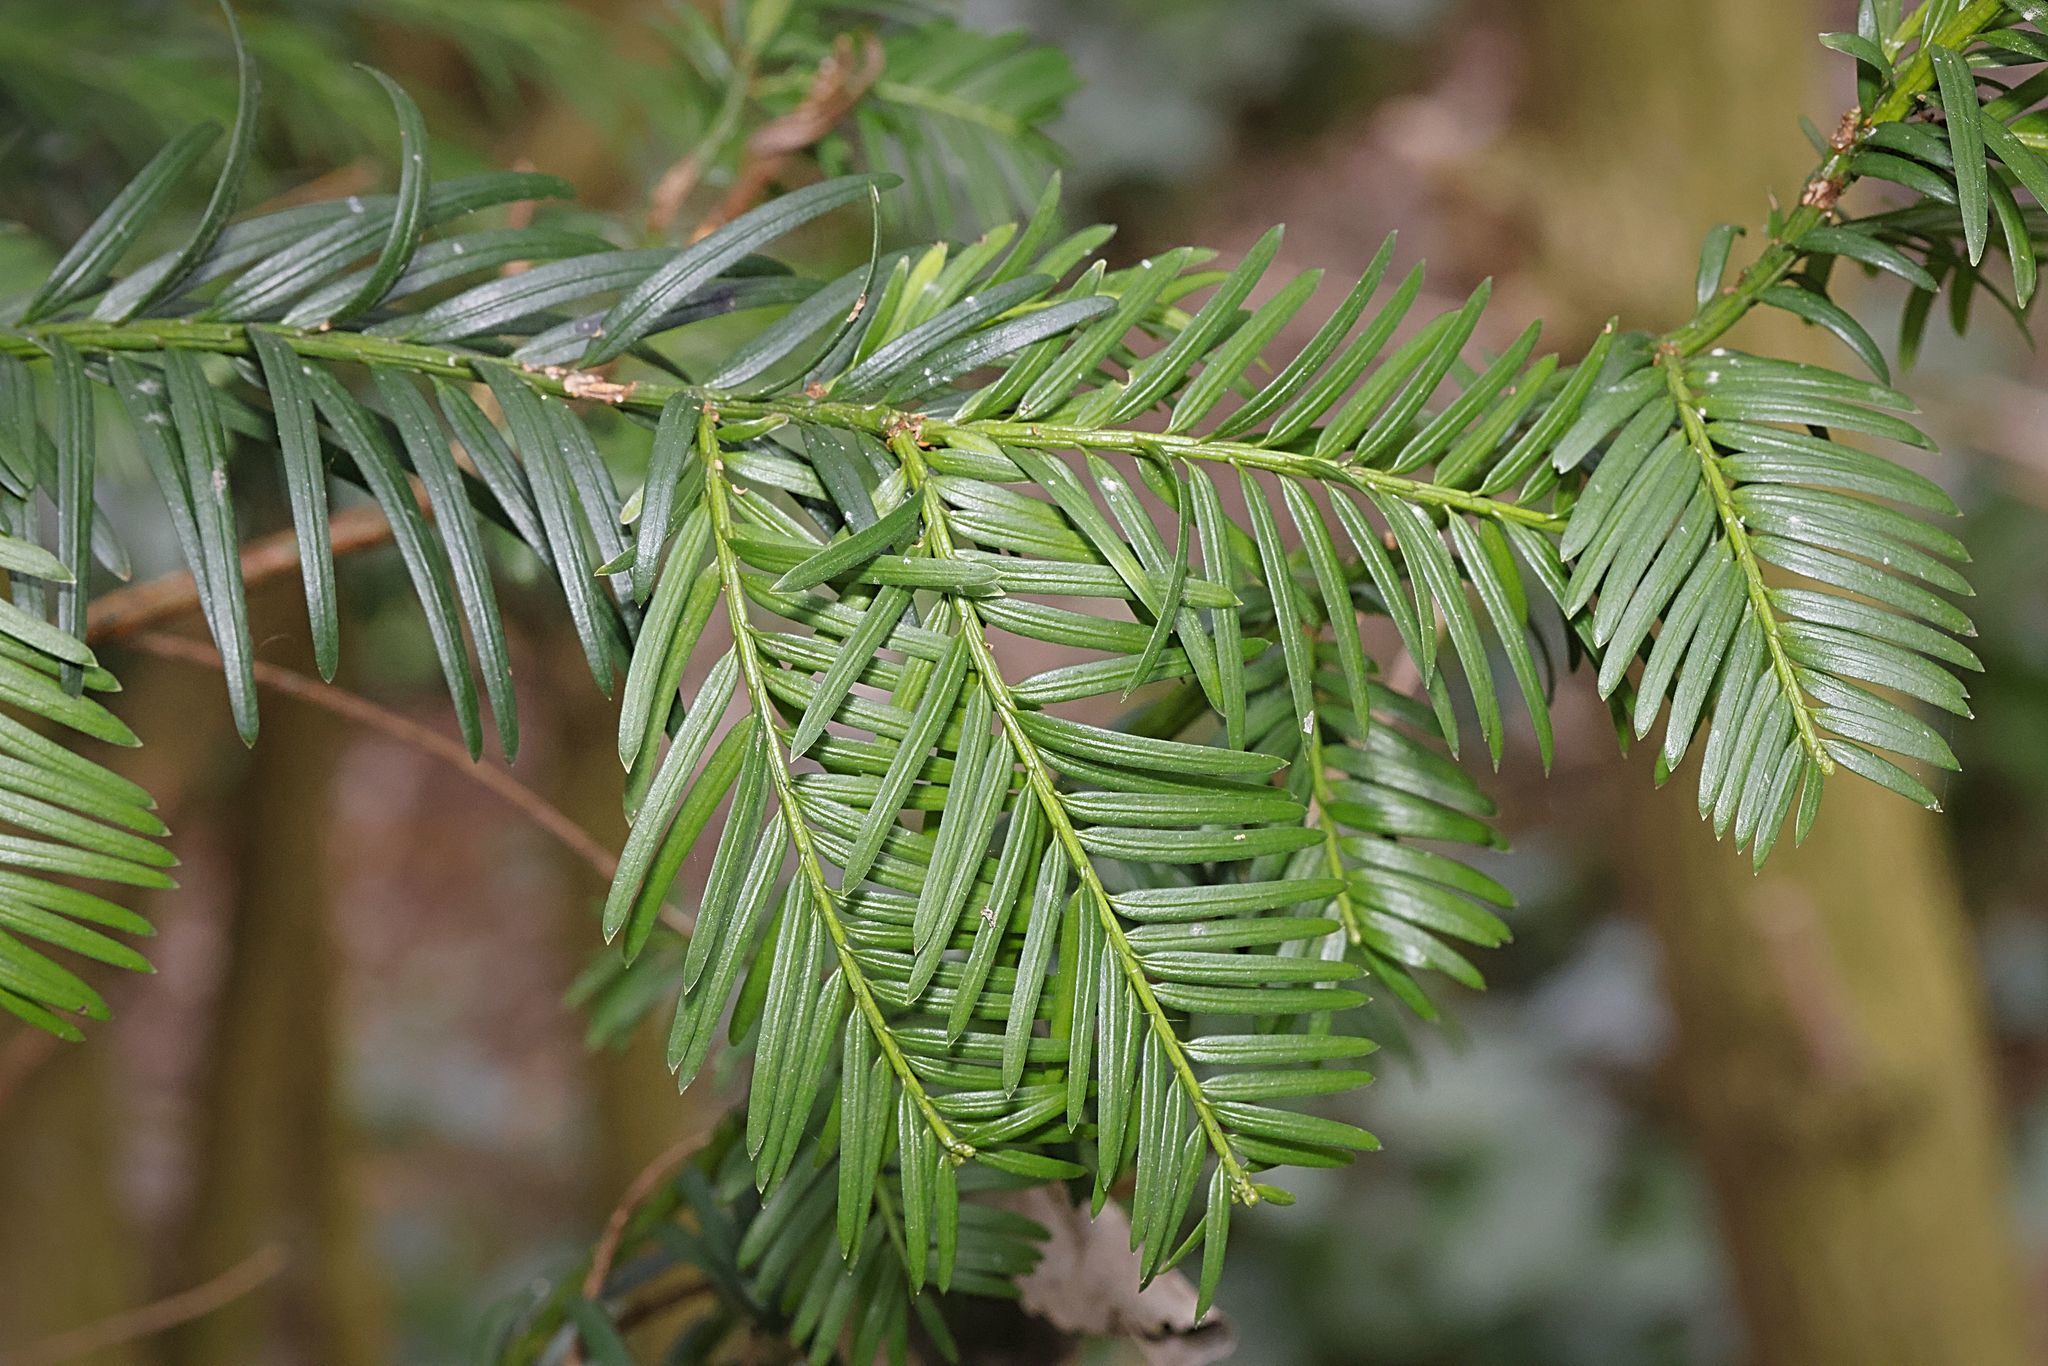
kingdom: Plantae
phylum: Tracheophyta
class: Pinopsida
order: Pinales
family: Taxaceae
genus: Taxus
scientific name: Taxus baccata
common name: Yew
